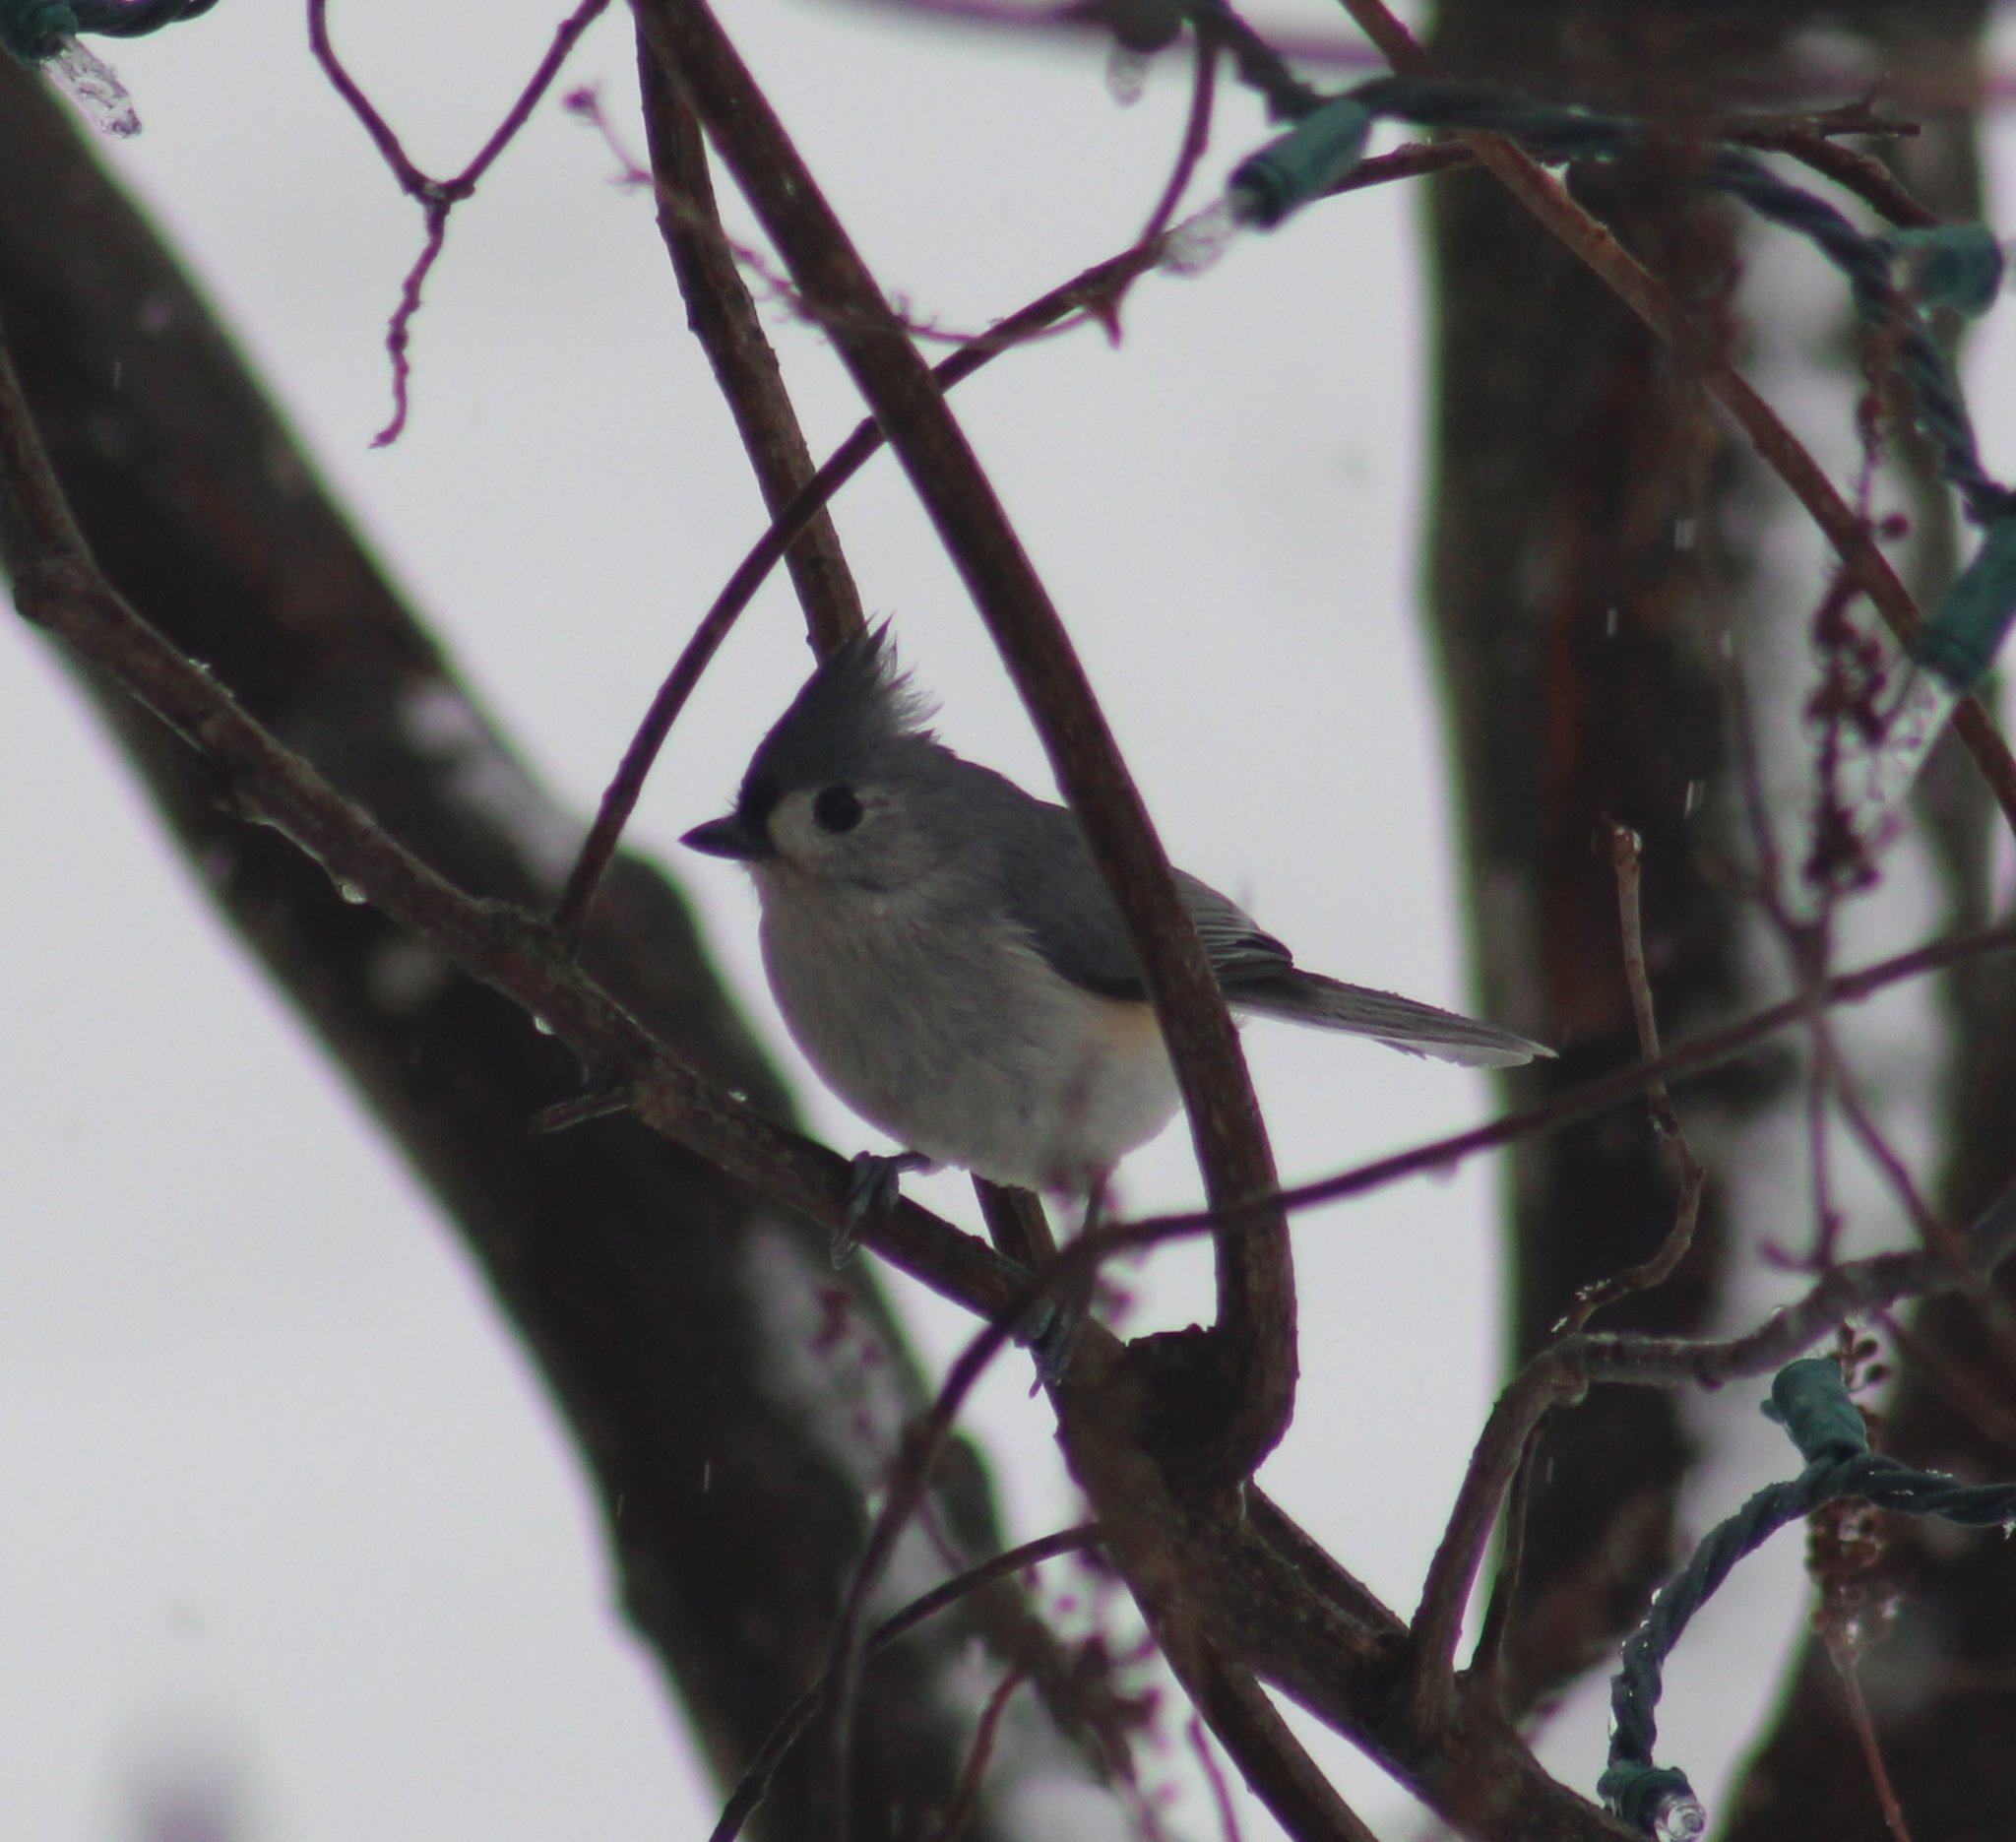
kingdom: Animalia
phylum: Chordata
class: Aves
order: Passeriformes
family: Paridae
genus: Baeolophus
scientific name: Baeolophus bicolor
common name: Tufted titmouse
